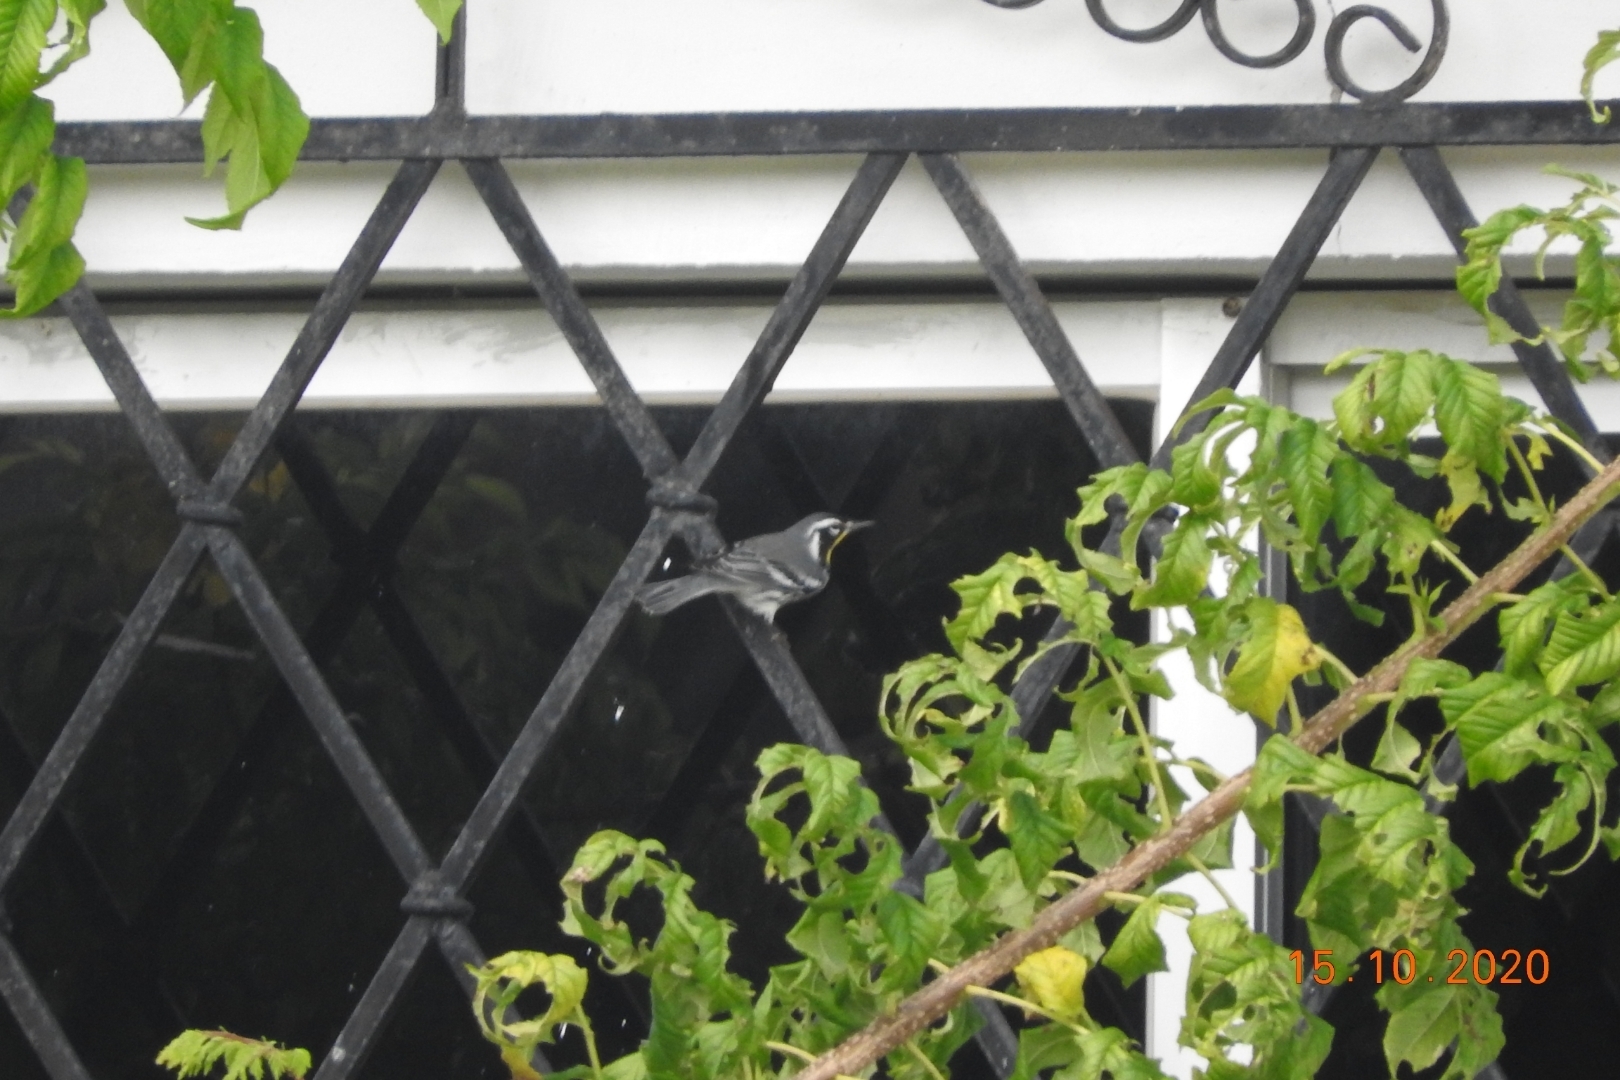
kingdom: Animalia
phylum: Chordata
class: Aves
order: Passeriformes
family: Parulidae
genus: Setophaga
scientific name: Setophaga dominica
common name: Yellow-throated warbler
